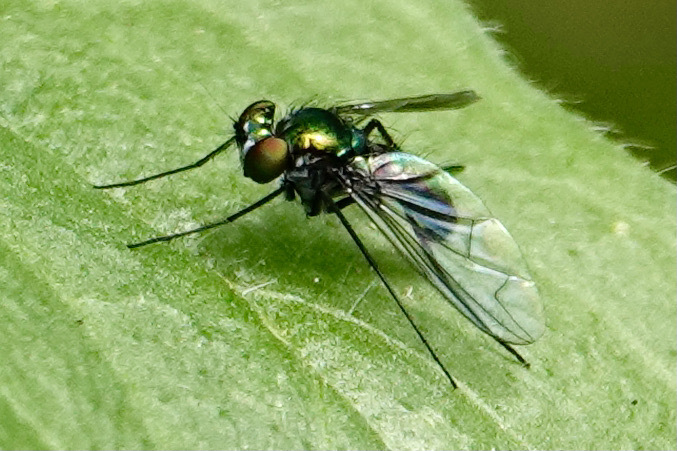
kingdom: Animalia
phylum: Arthropoda
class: Insecta
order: Diptera
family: Dolichopodidae
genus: Condylostylus
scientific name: Condylostylus patibulatus
